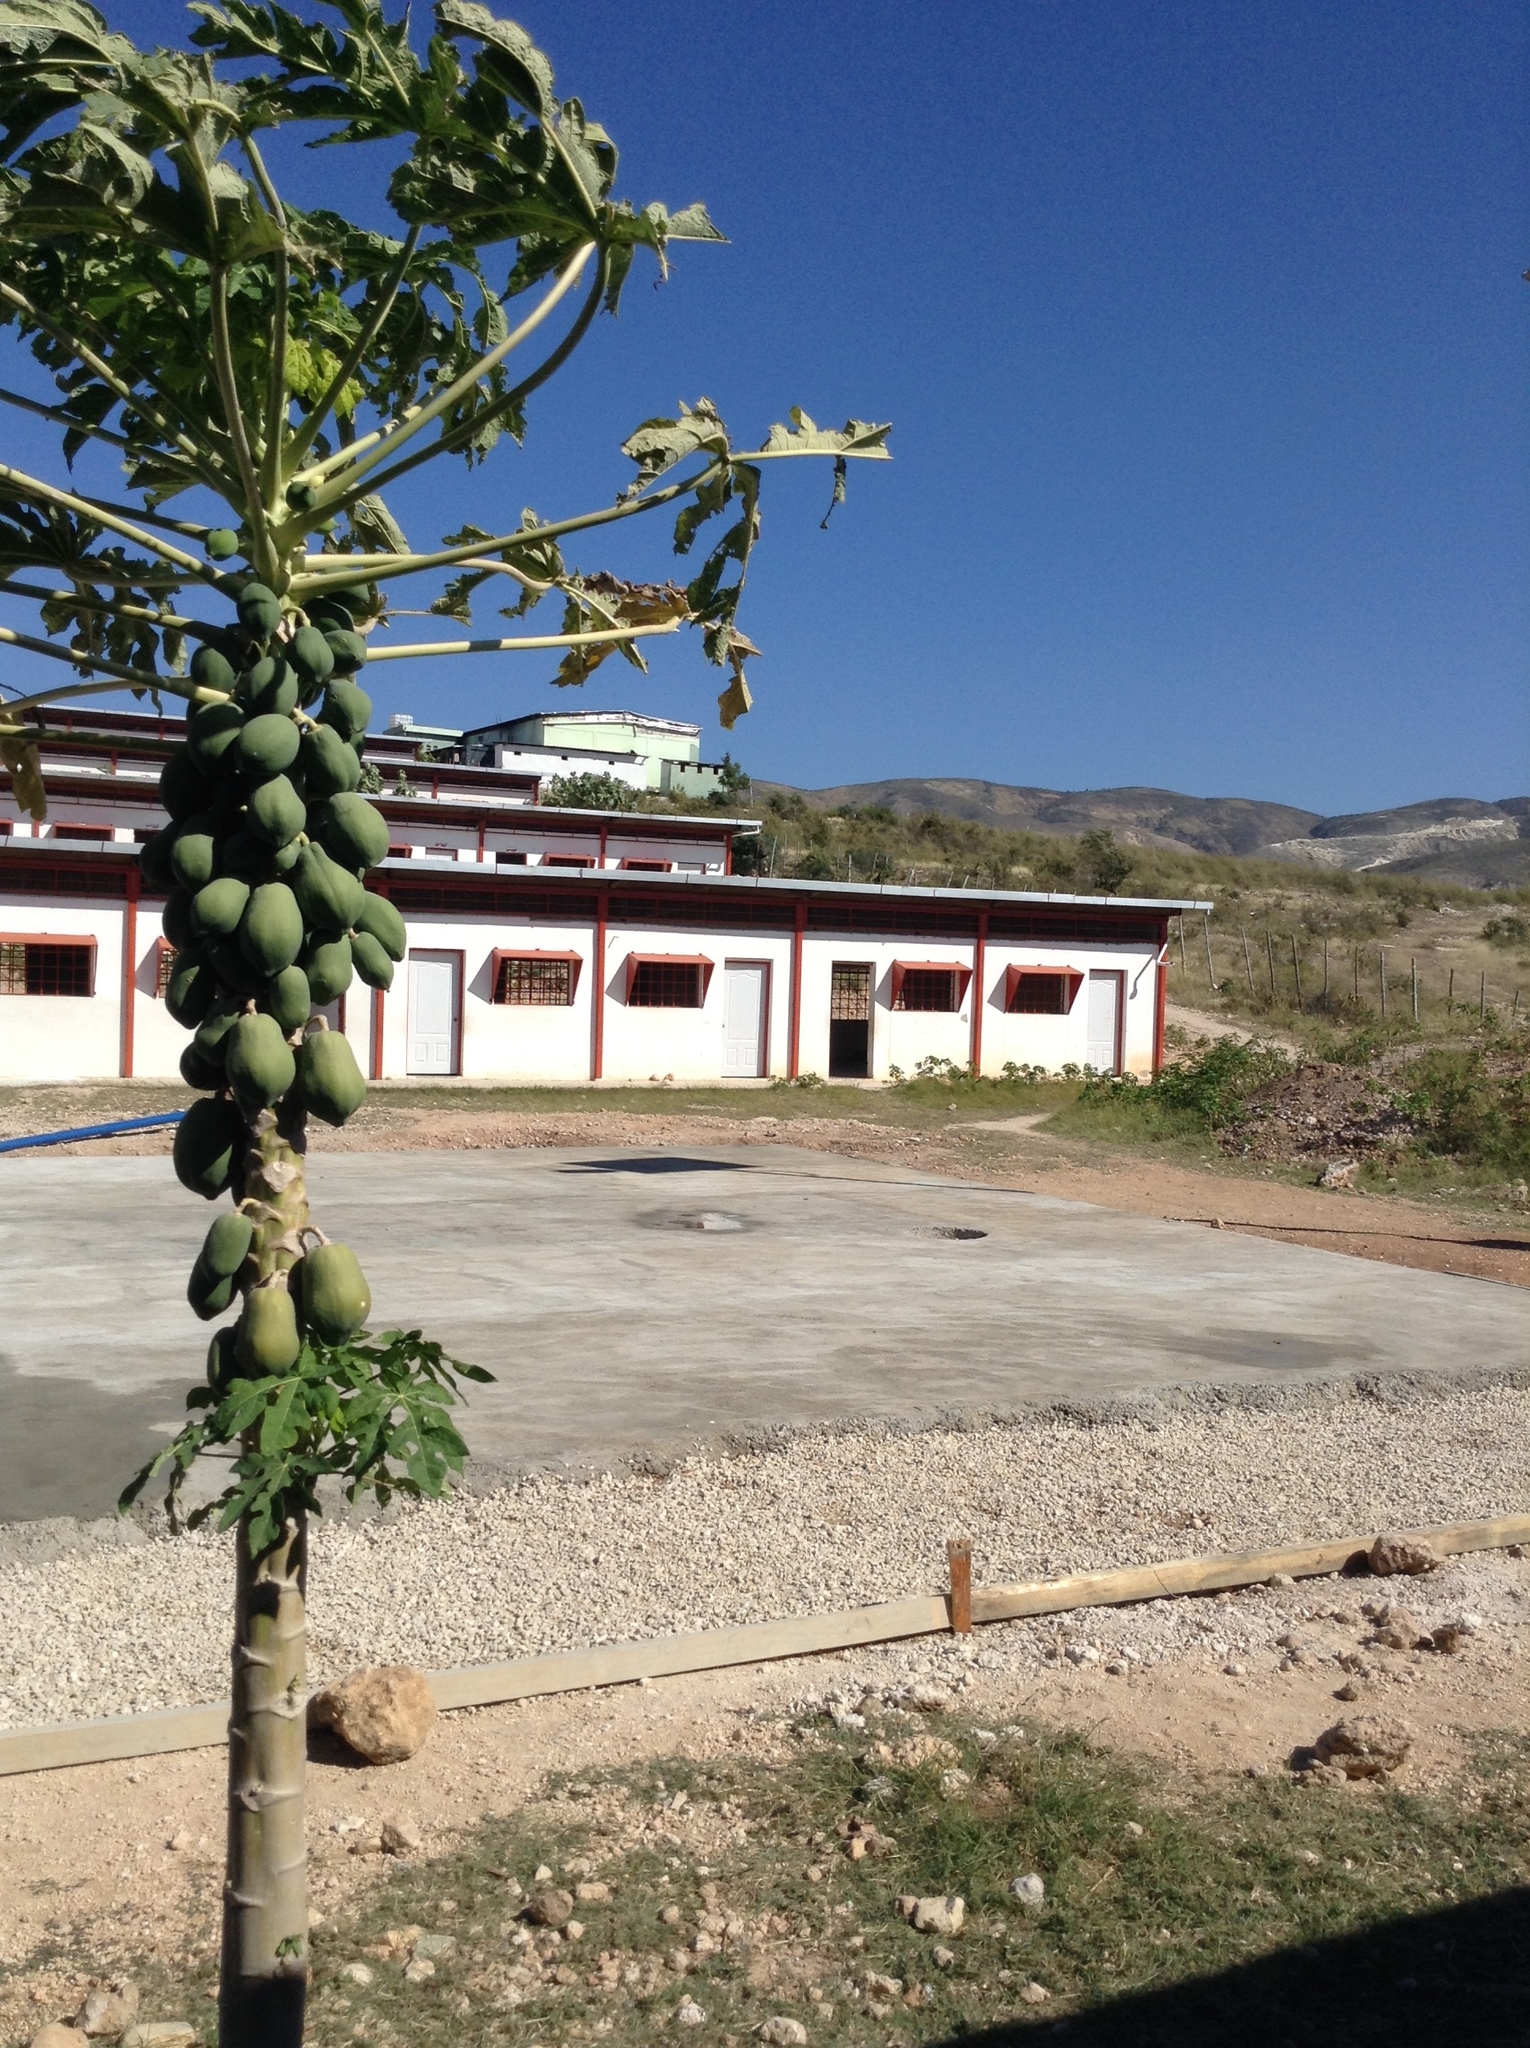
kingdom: Plantae
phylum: Tracheophyta
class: Magnoliopsida
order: Brassicales
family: Caricaceae
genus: Carica
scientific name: Carica papaya
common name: Papaya
